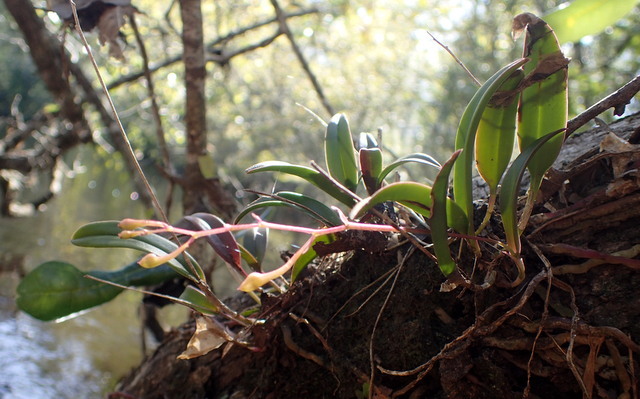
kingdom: Plantae
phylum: Tracheophyta
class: Liliopsida
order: Asparagales
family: Orchidaceae
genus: Epidendrum
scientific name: Epidendrum conopseum
